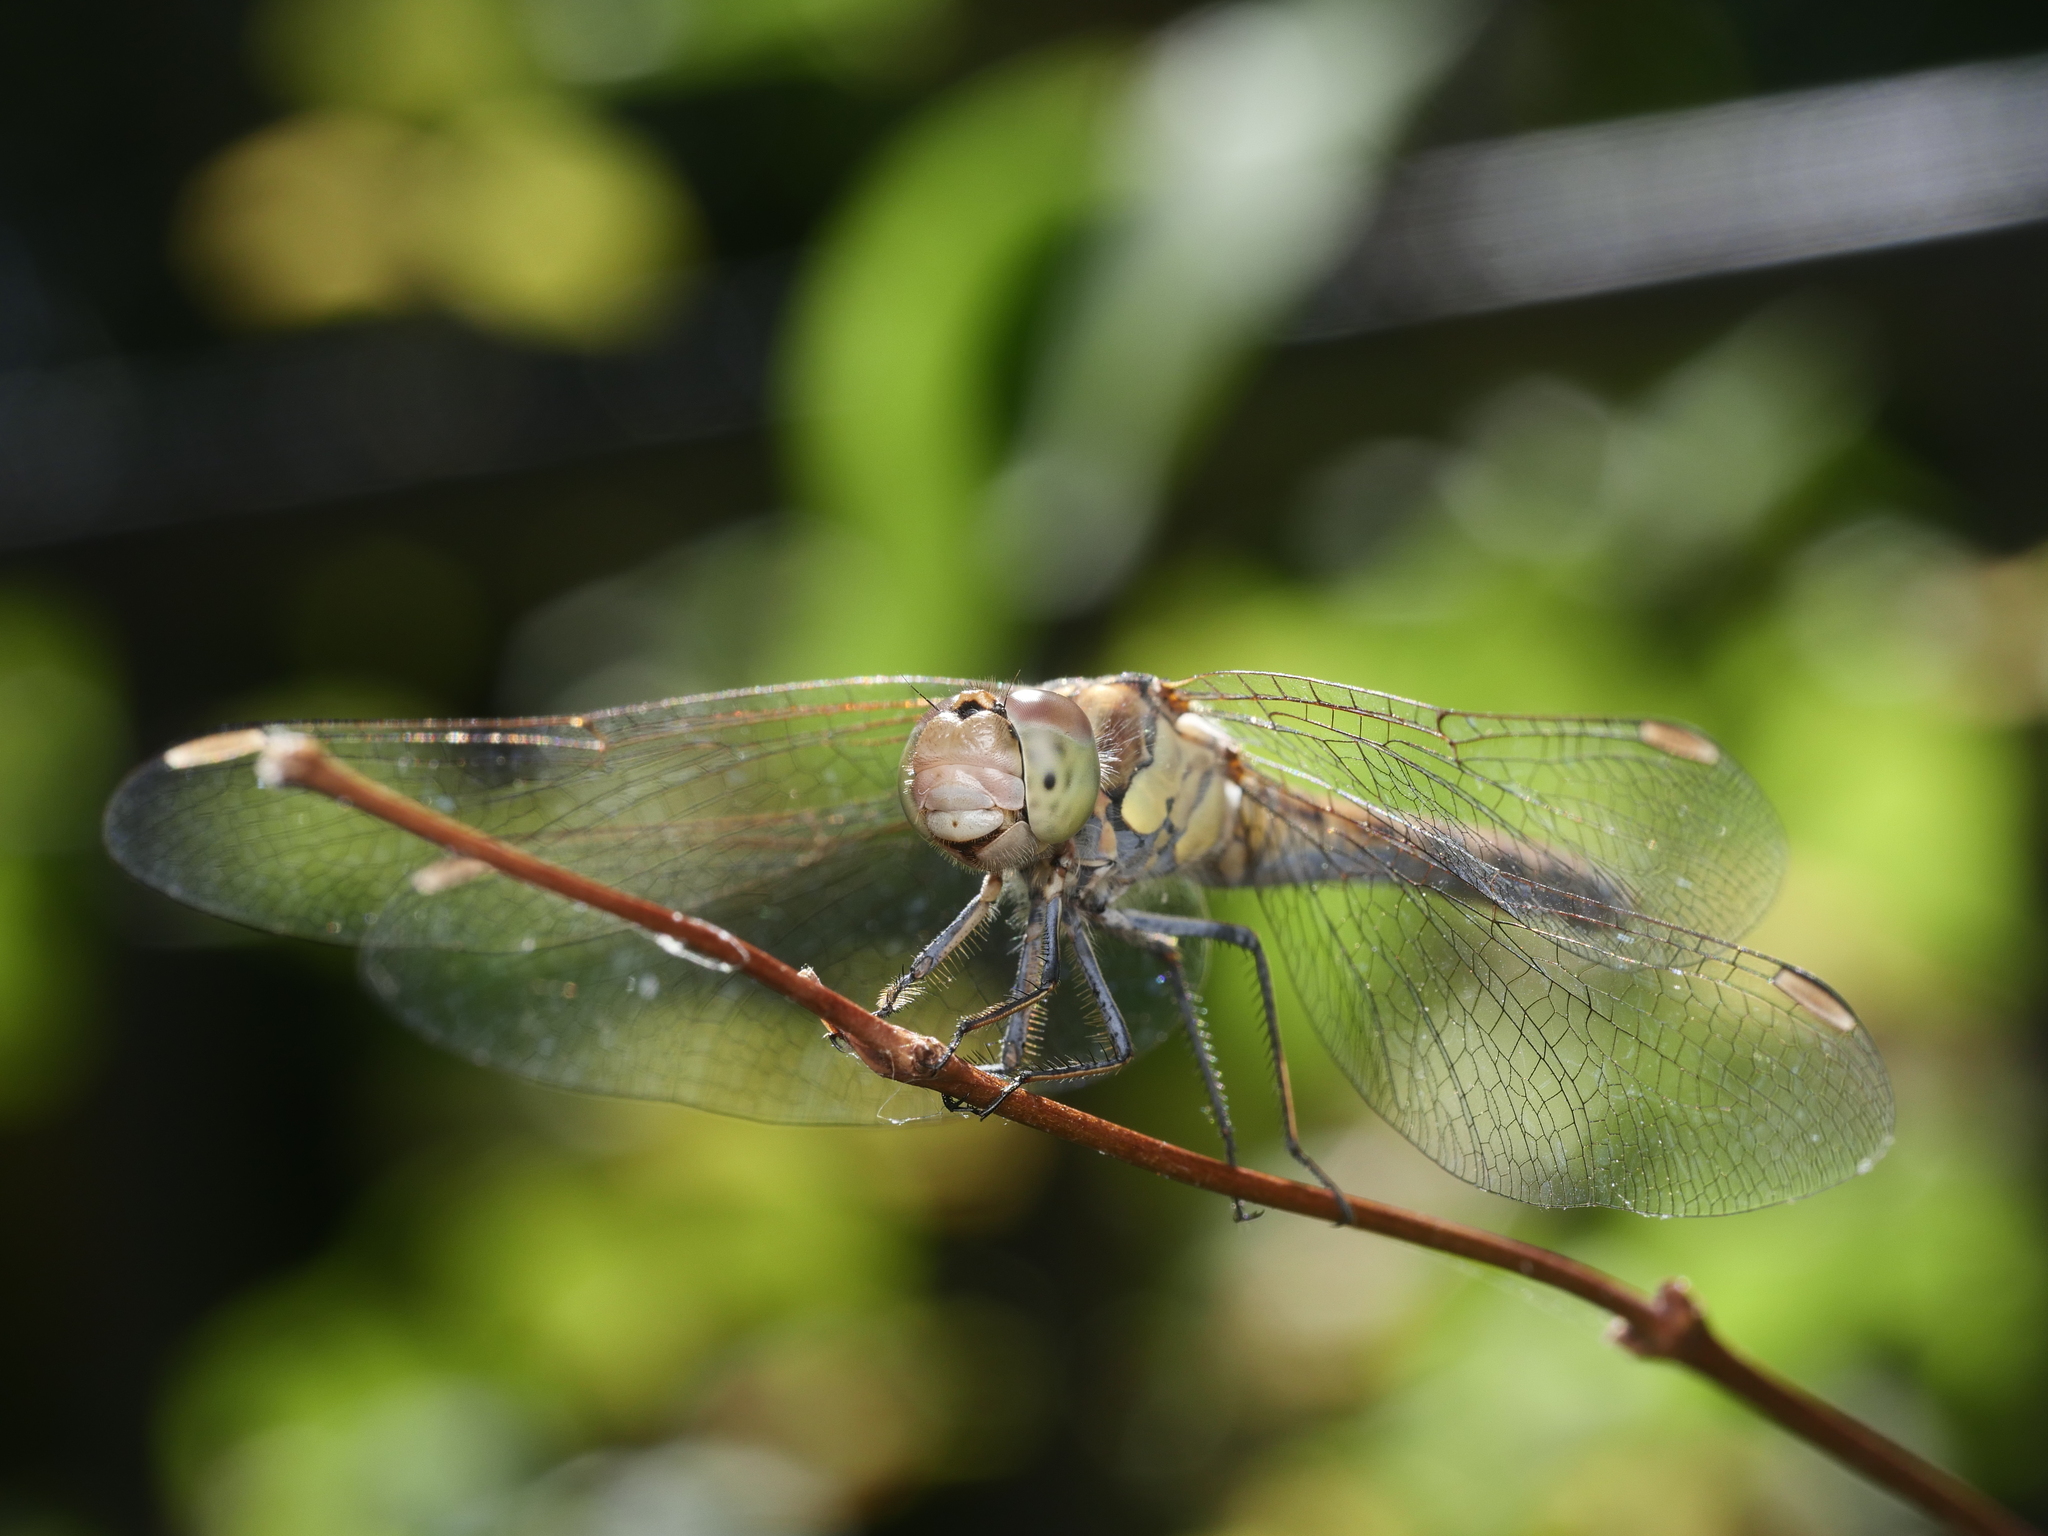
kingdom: Animalia
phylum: Arthropoda
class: Insecta
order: Odonata
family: Libellulidae
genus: Sympetrum
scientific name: Sympetrum striolatum
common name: Common darter
